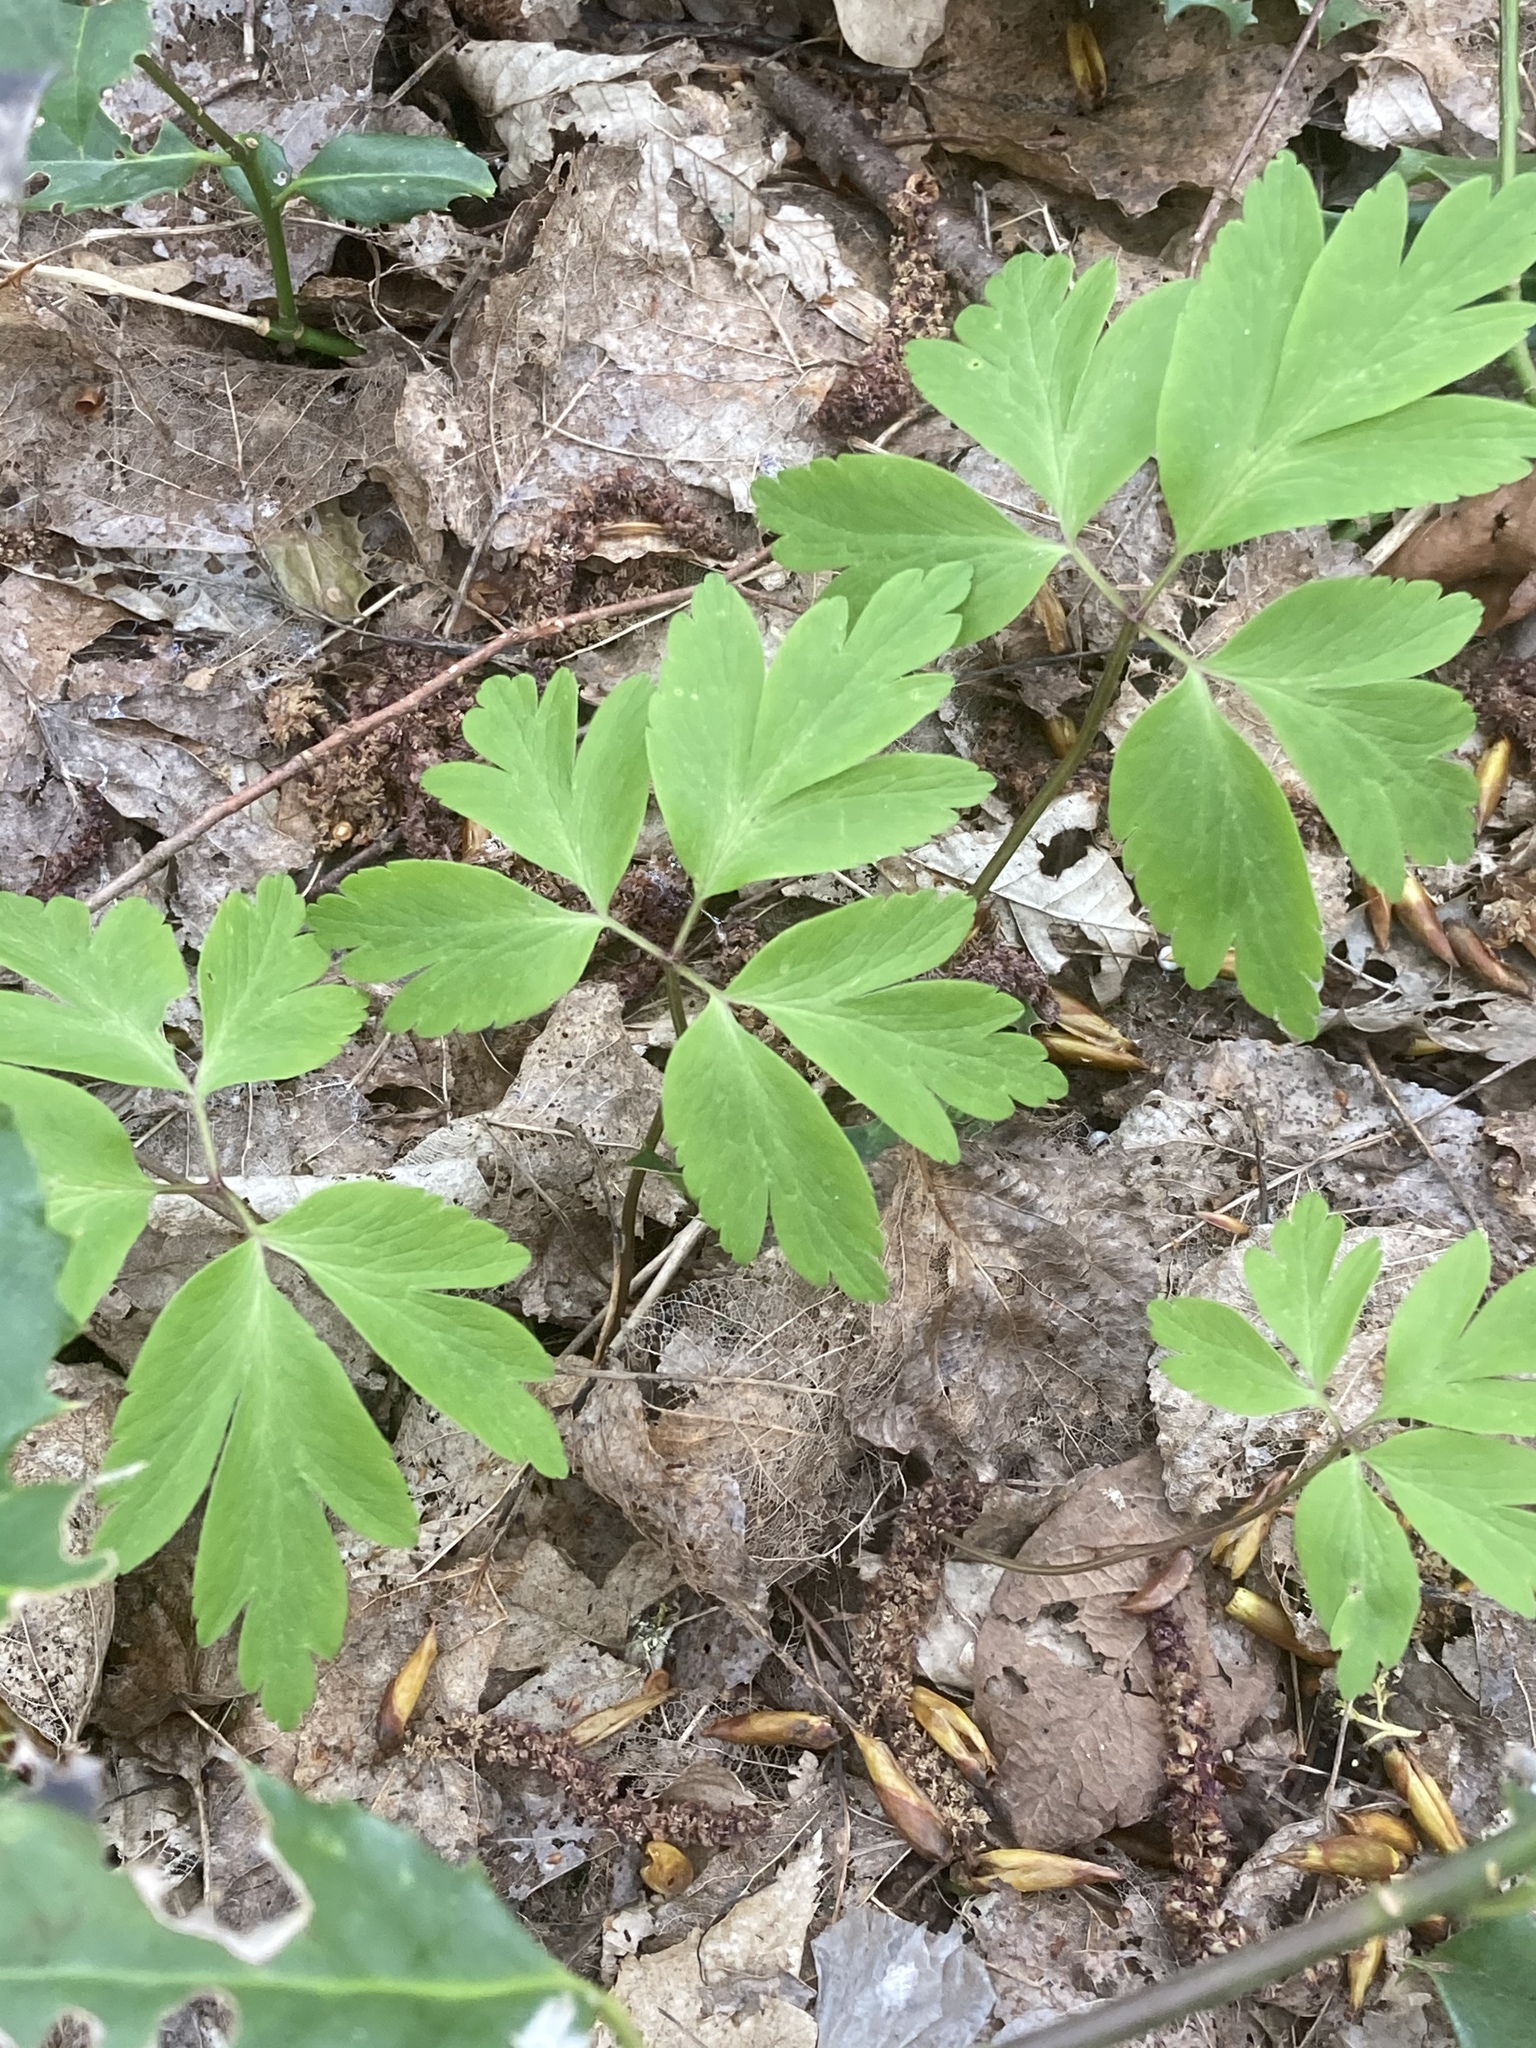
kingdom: Plantae
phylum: Tracheophyta
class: Magnoliopsida
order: Ranunculales
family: Ranunculaceae
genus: Anemone
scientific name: Anemone nemorosa
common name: Wood anemone
